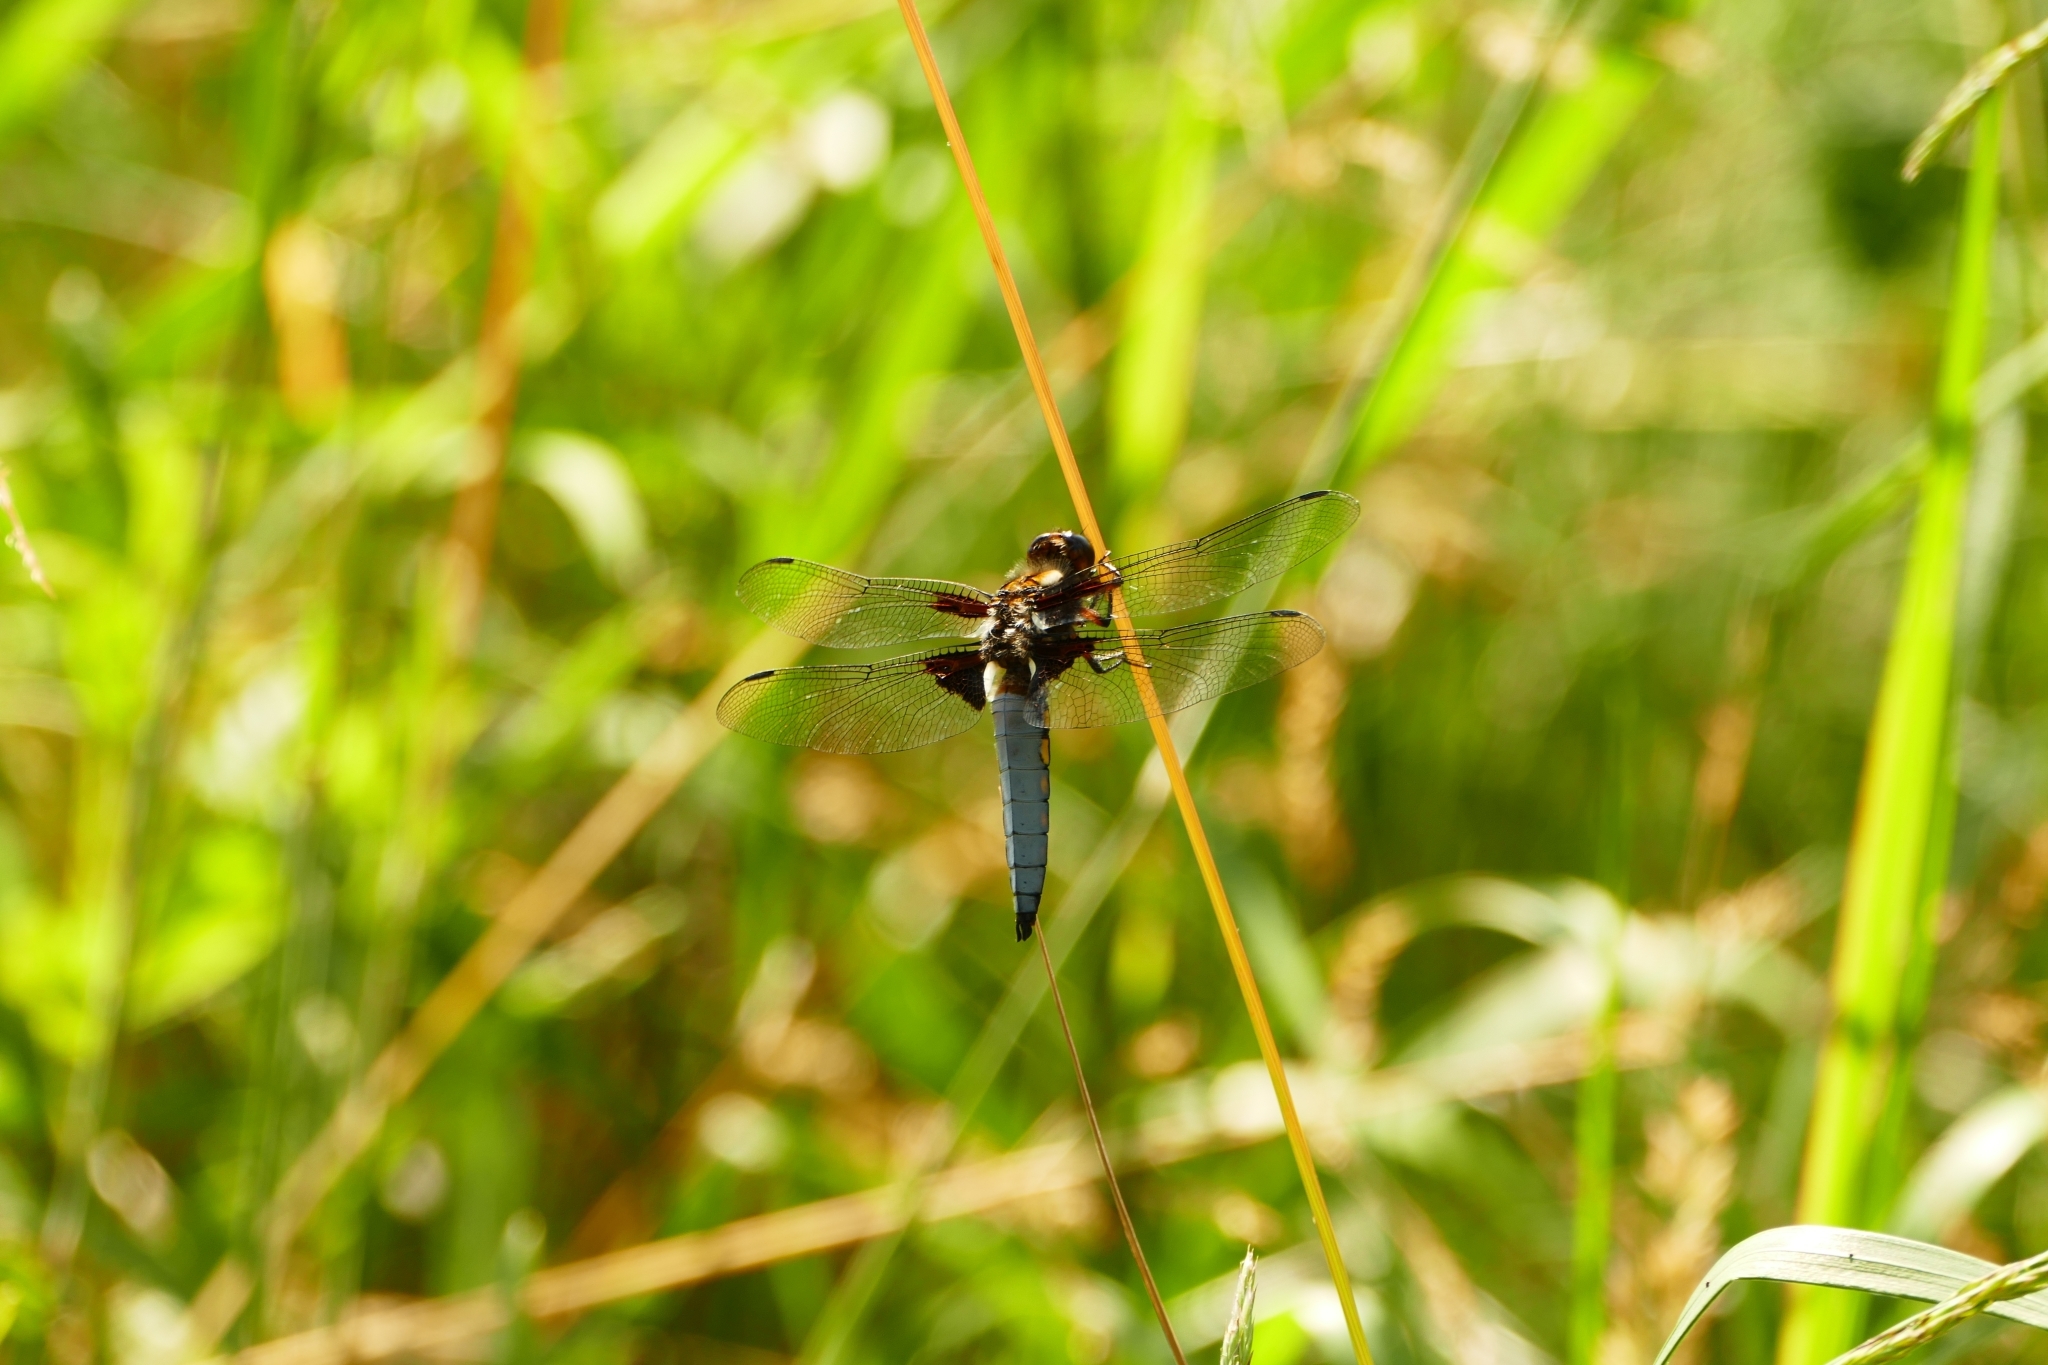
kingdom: Animalia
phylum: Arthropoda
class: Insecta
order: Odonata
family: Libellulidae
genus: Libellula
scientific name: Libellula depressa
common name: Broad-bodied chaser
